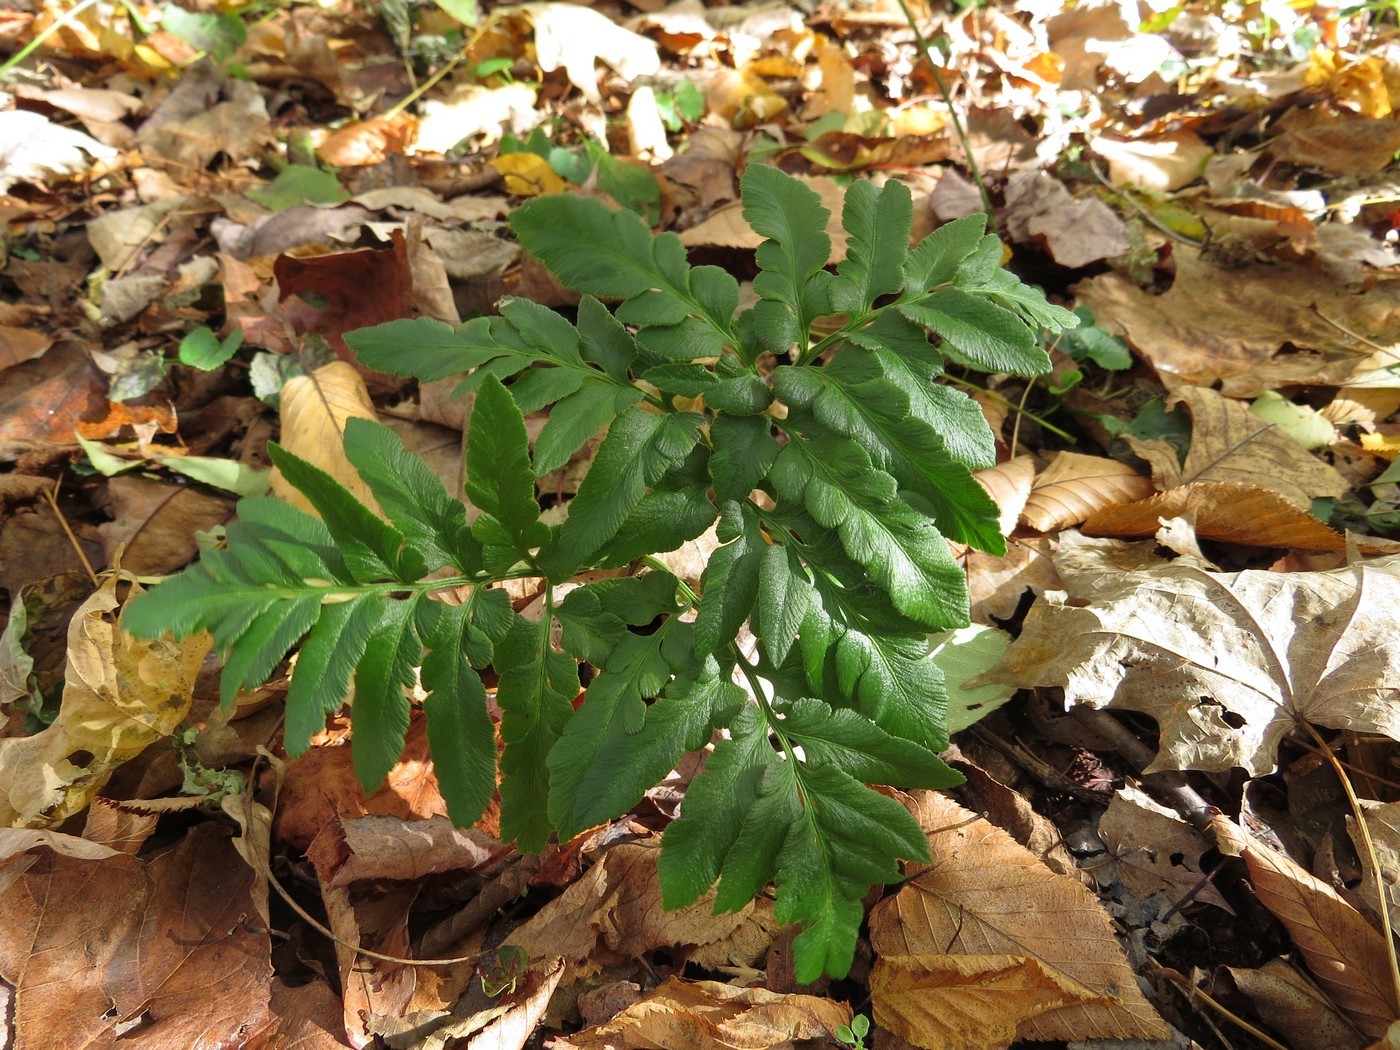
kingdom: Plantae
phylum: Tracheophyta
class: Polypodiopsida
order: Ophioglossales
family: Ophioglossaceae
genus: Sceptridium
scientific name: Sceptridium dissectum
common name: Cut-leaved grapefern
